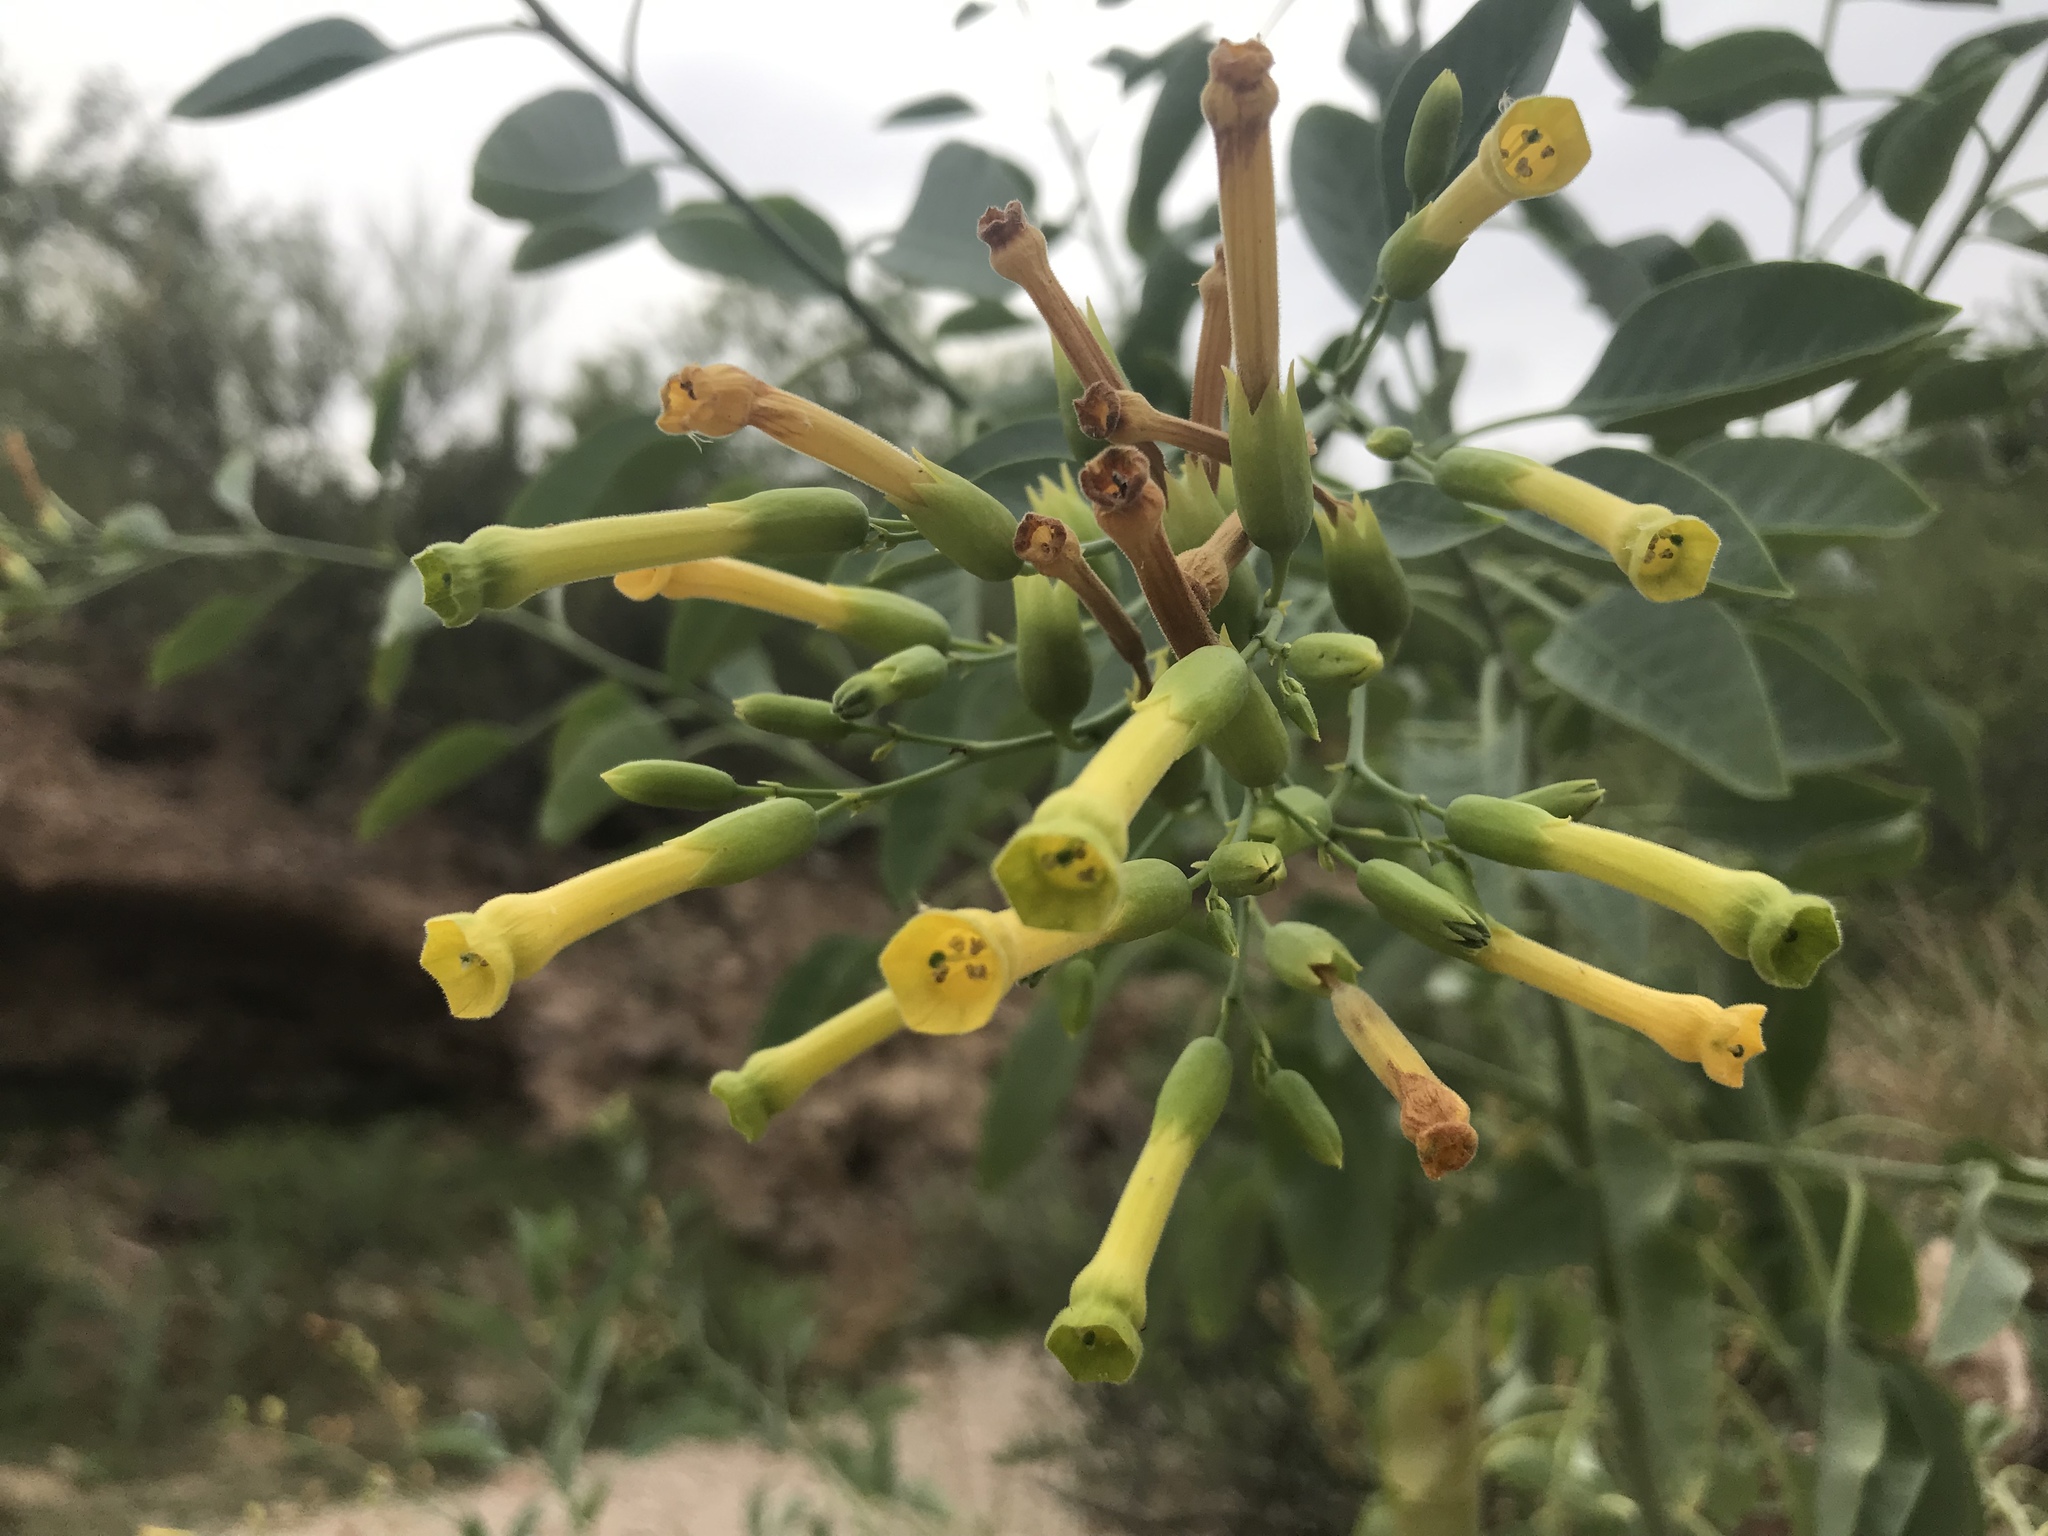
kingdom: Plantae
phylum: Tracheophyta
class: Magnoliopsida
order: Solanales
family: Solanaceae
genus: Nicotiana
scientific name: Nicotiana glauca
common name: Tree tobacco
